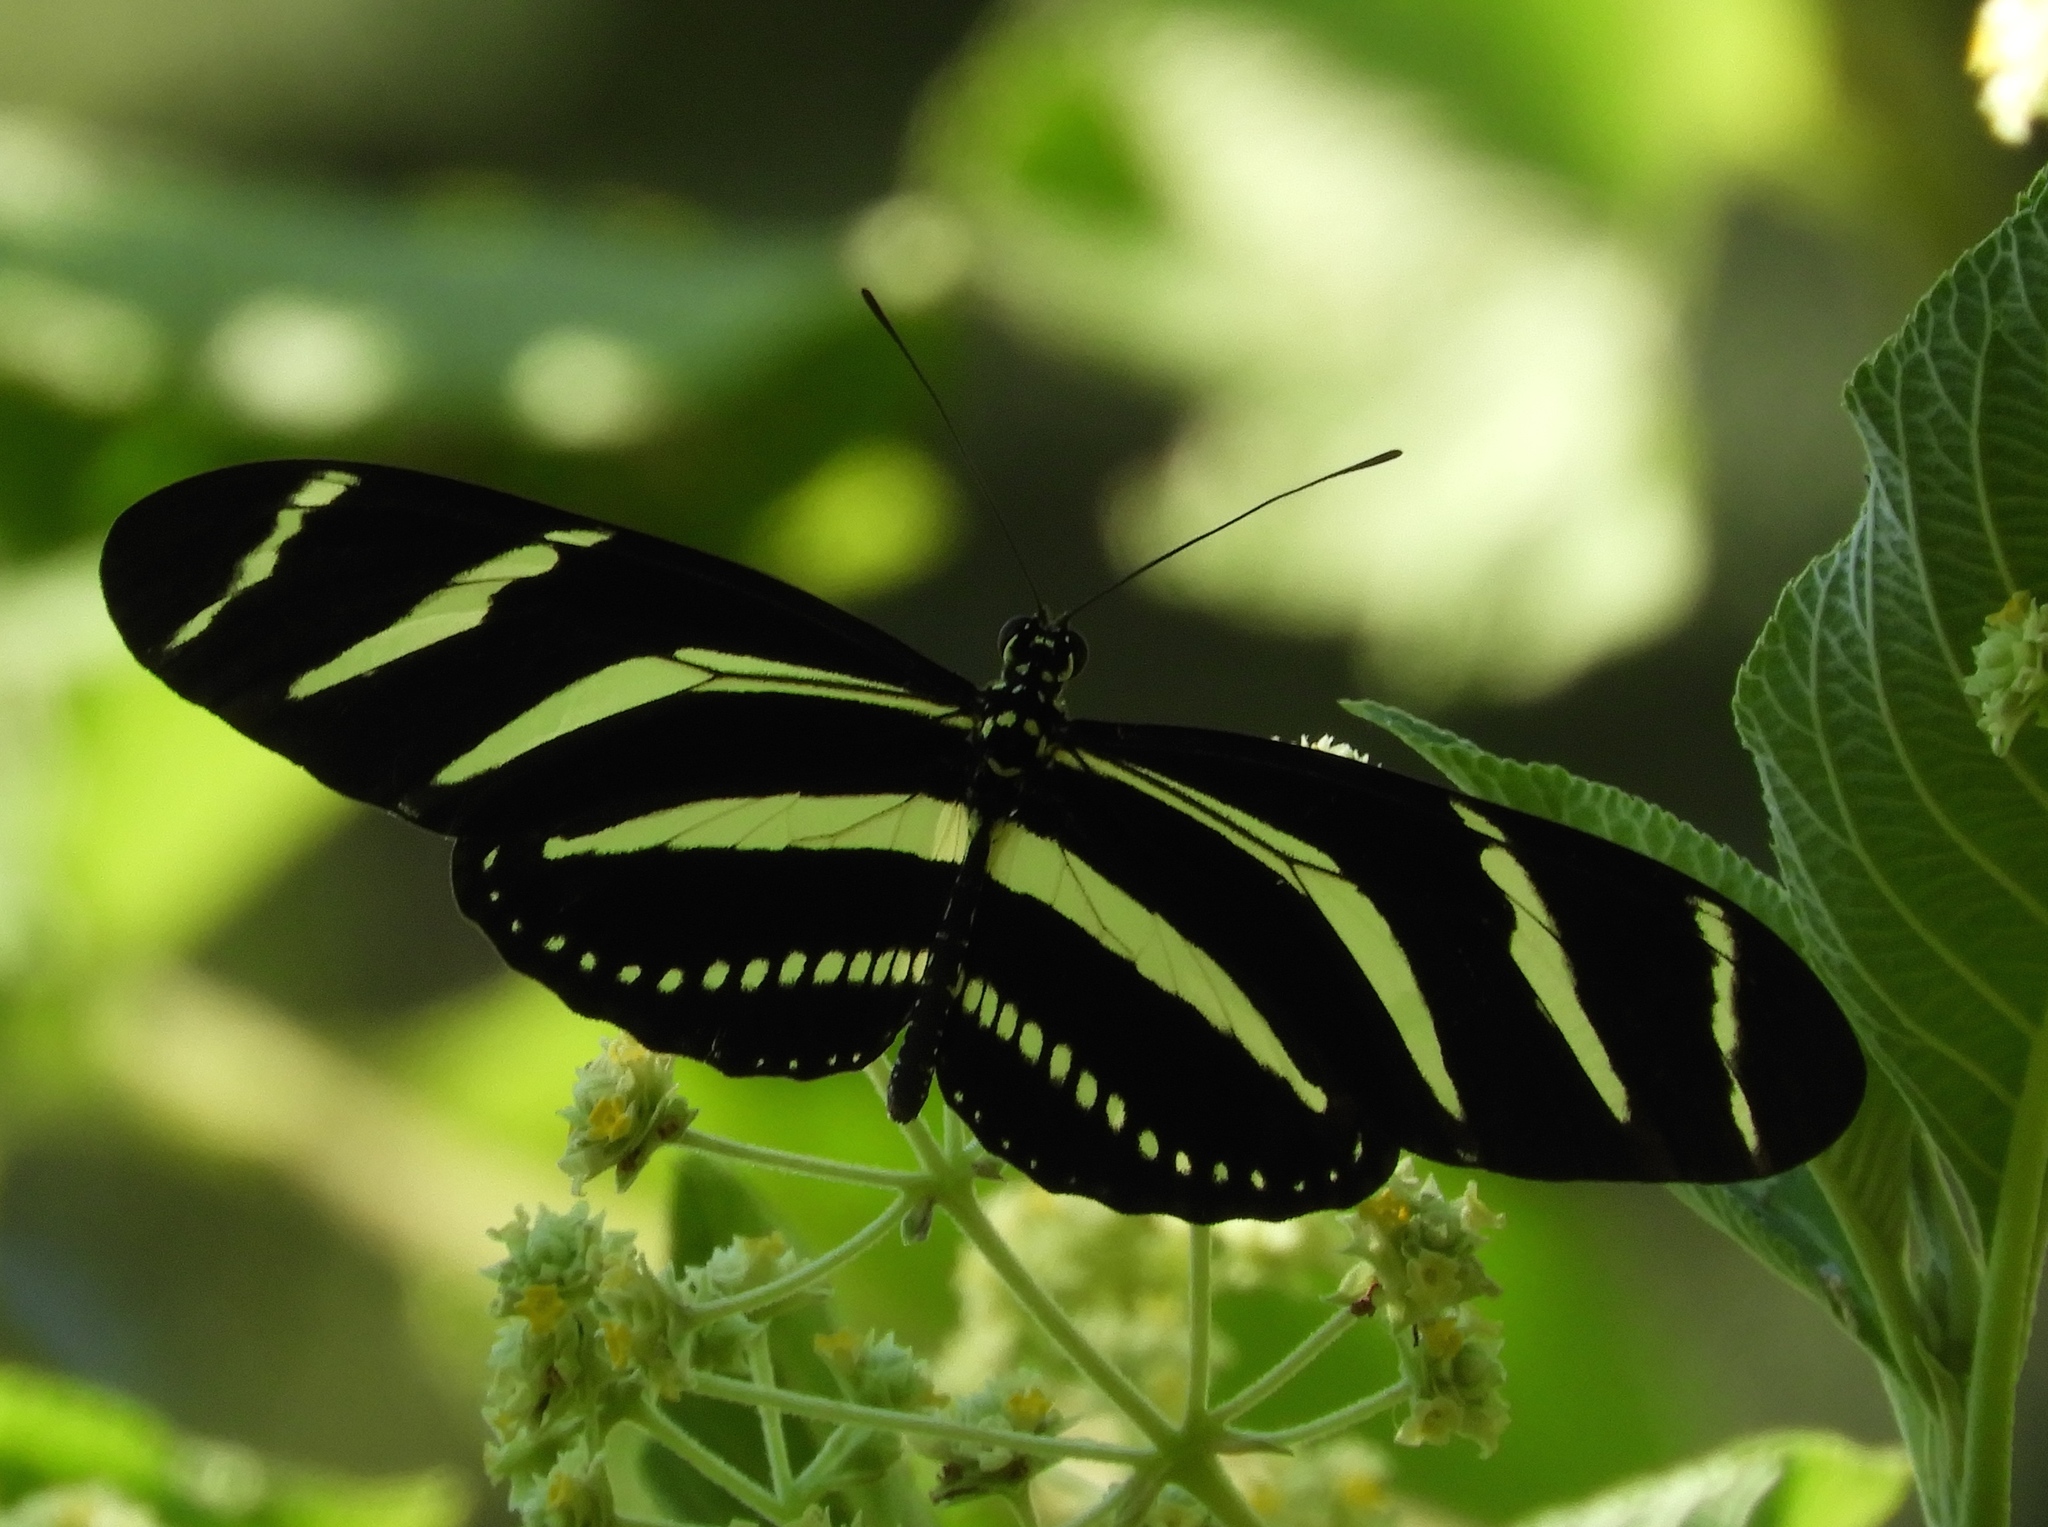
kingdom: Animalia
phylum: Arthropoda
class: Insecta
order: Lepidoptera
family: Nymphalidae
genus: Heliconius
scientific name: Heliconius charithonia
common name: Zebra long wing
